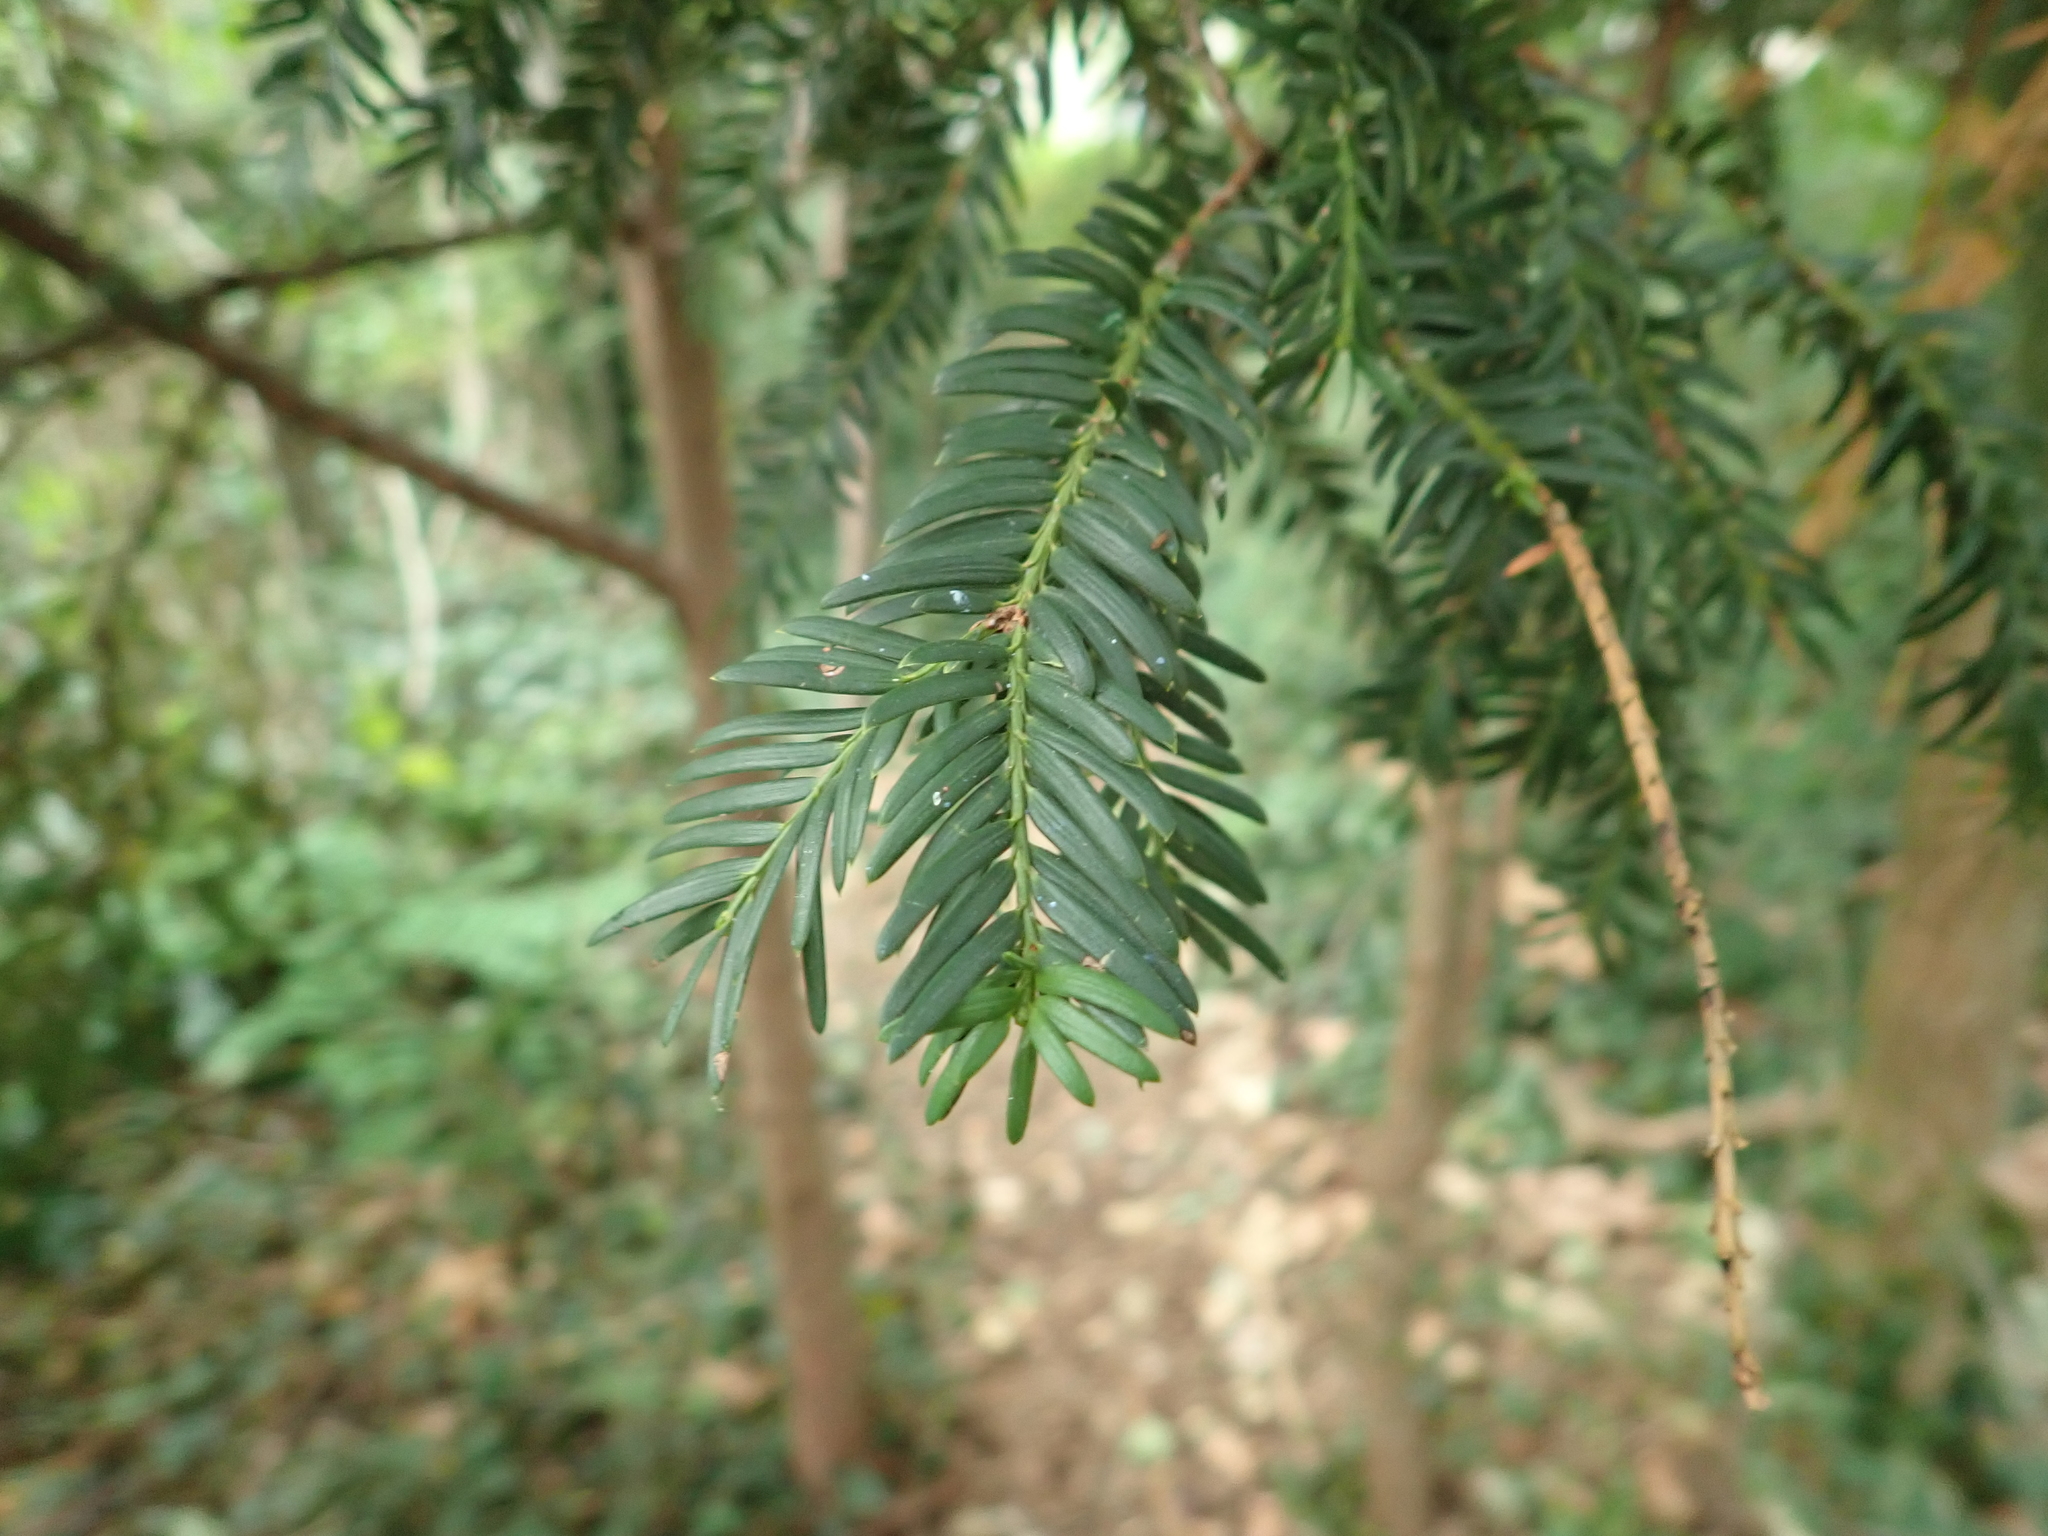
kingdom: Plantae
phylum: Tracheophyta
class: Pinopsida
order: Pinales
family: Taxaceae
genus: Taxus
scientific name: Taxus baccata
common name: Yew
